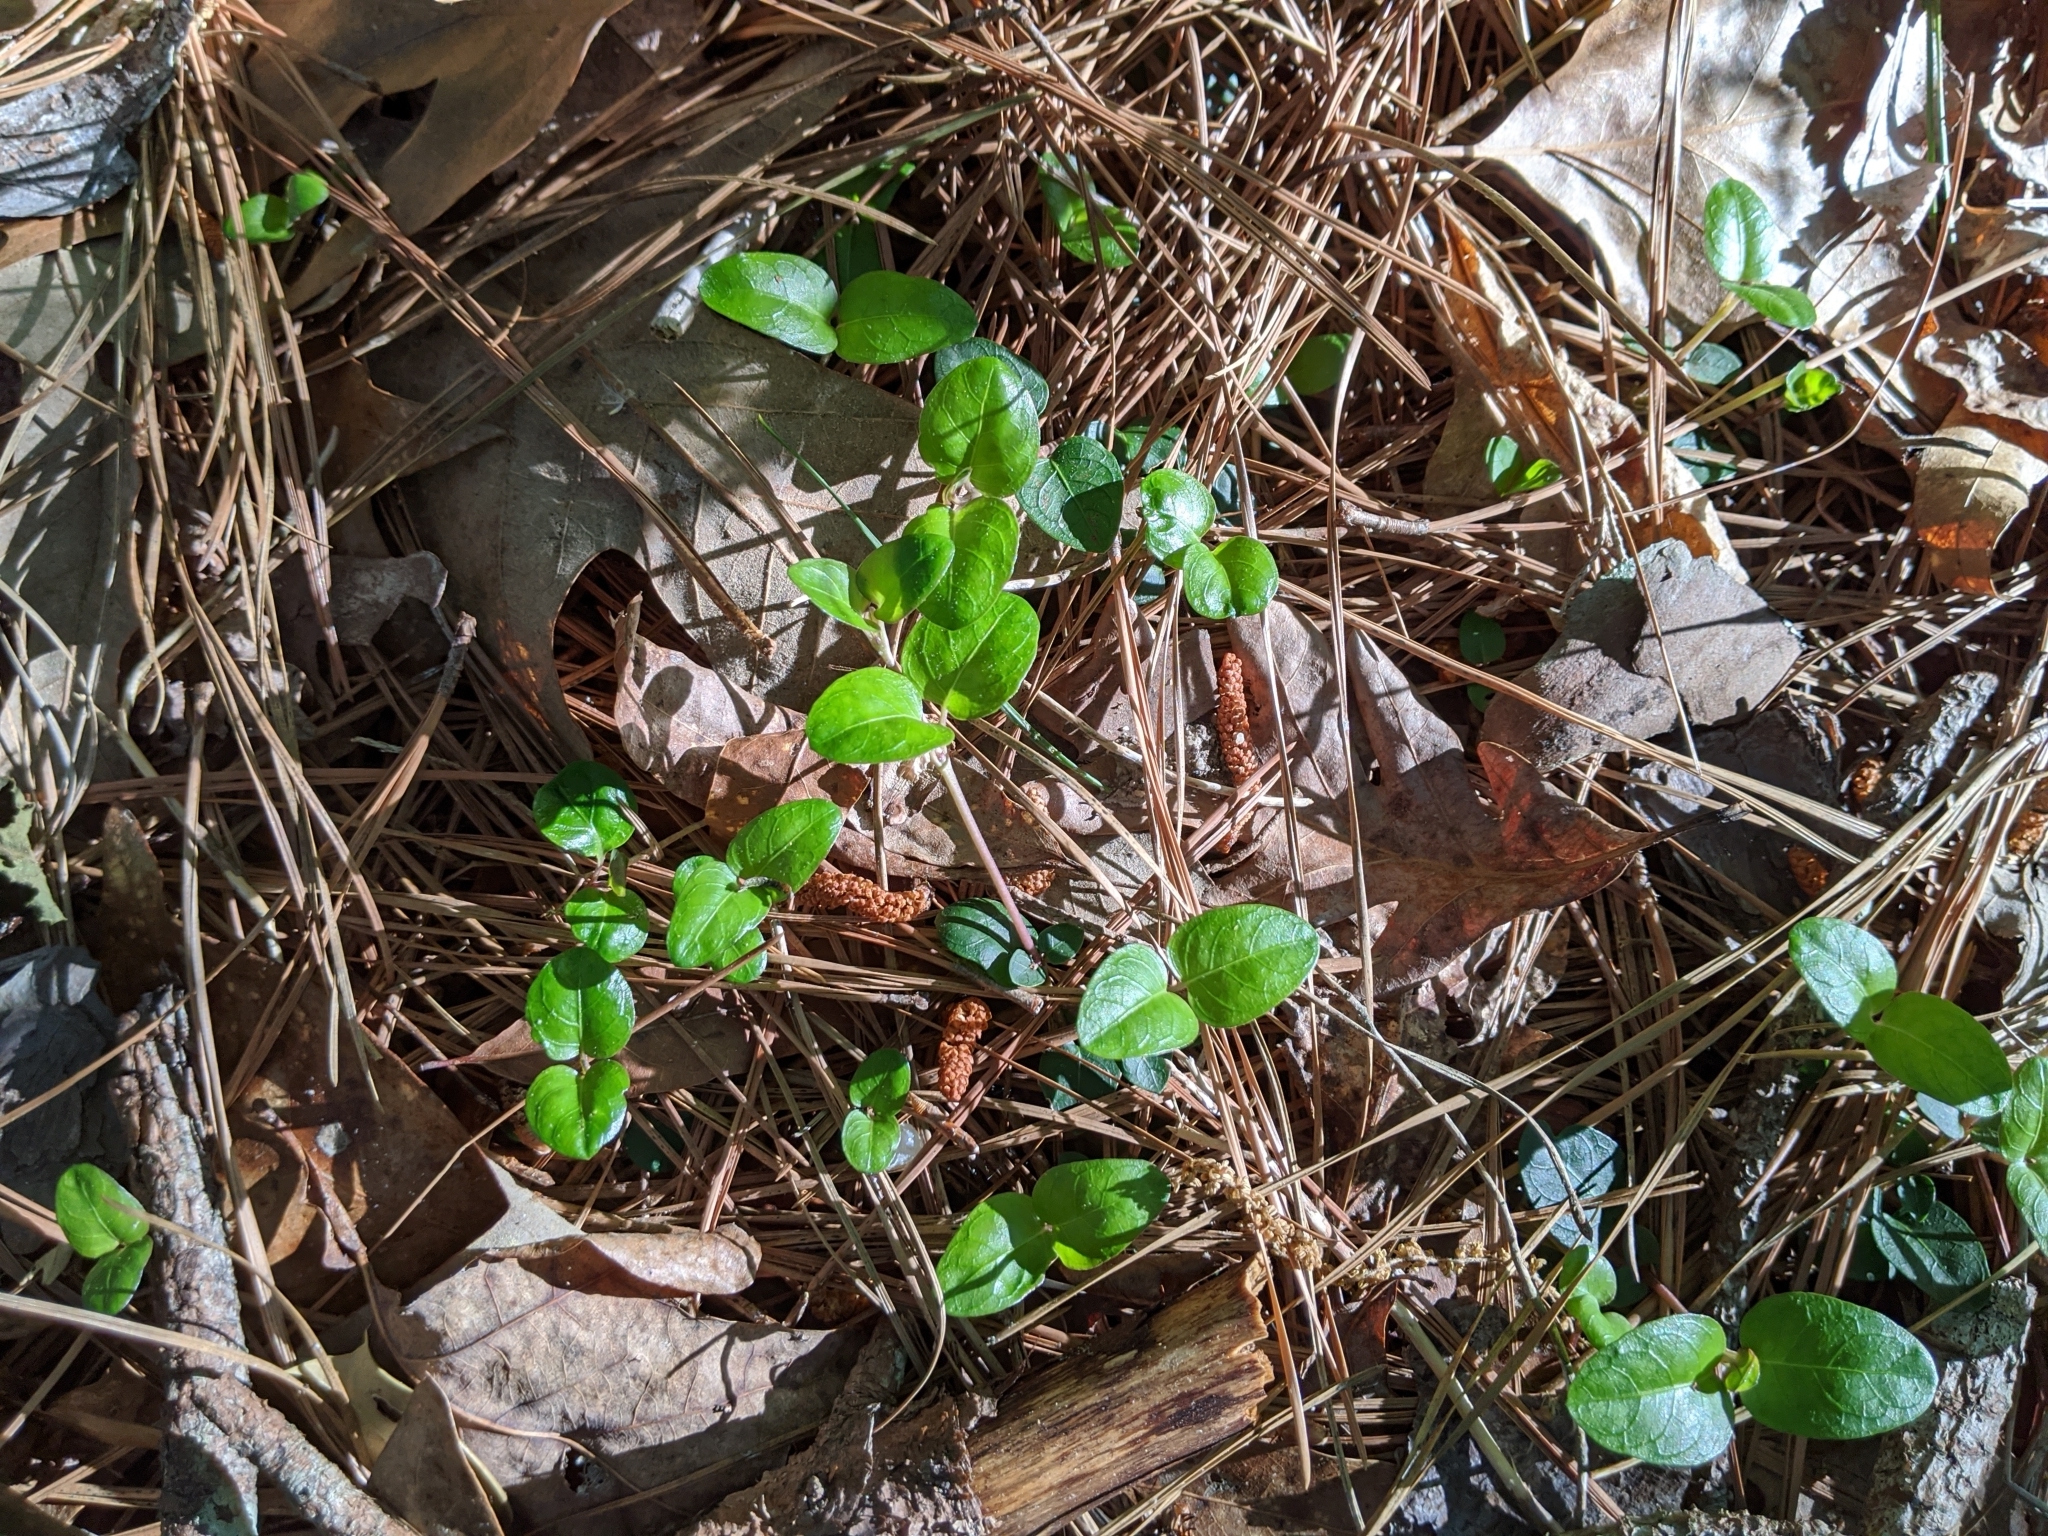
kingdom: Plantae
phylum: Tracheophyta
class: Magnoliopsida
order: Gentianales
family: Rubiaceae
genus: Mitchella
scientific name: Mitchella repens
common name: Partridge-berry
